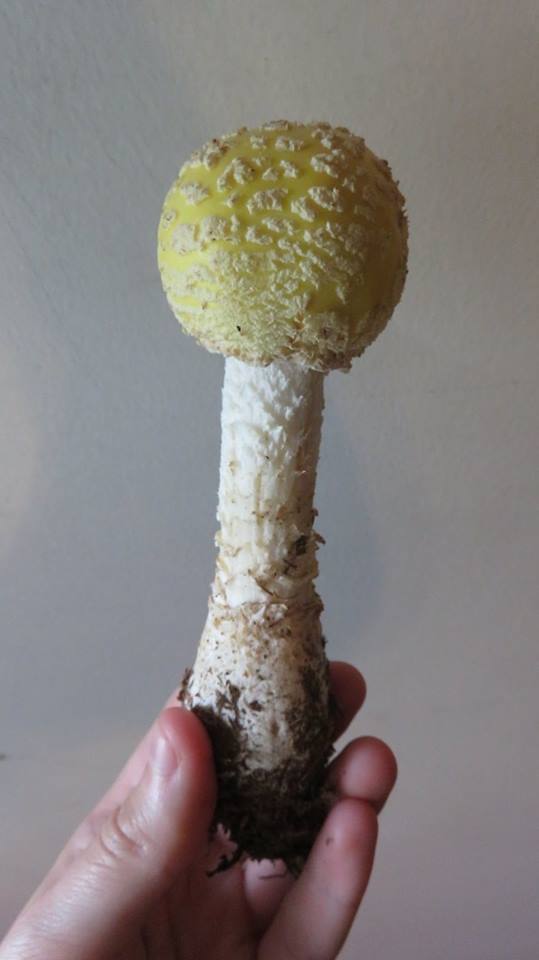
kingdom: Fungi
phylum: Basidiomycota
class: Agaricomycetes
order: Agaricales
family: Amanitaceae
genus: Amanita
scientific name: Amanita muscaria
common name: Fly agaric
